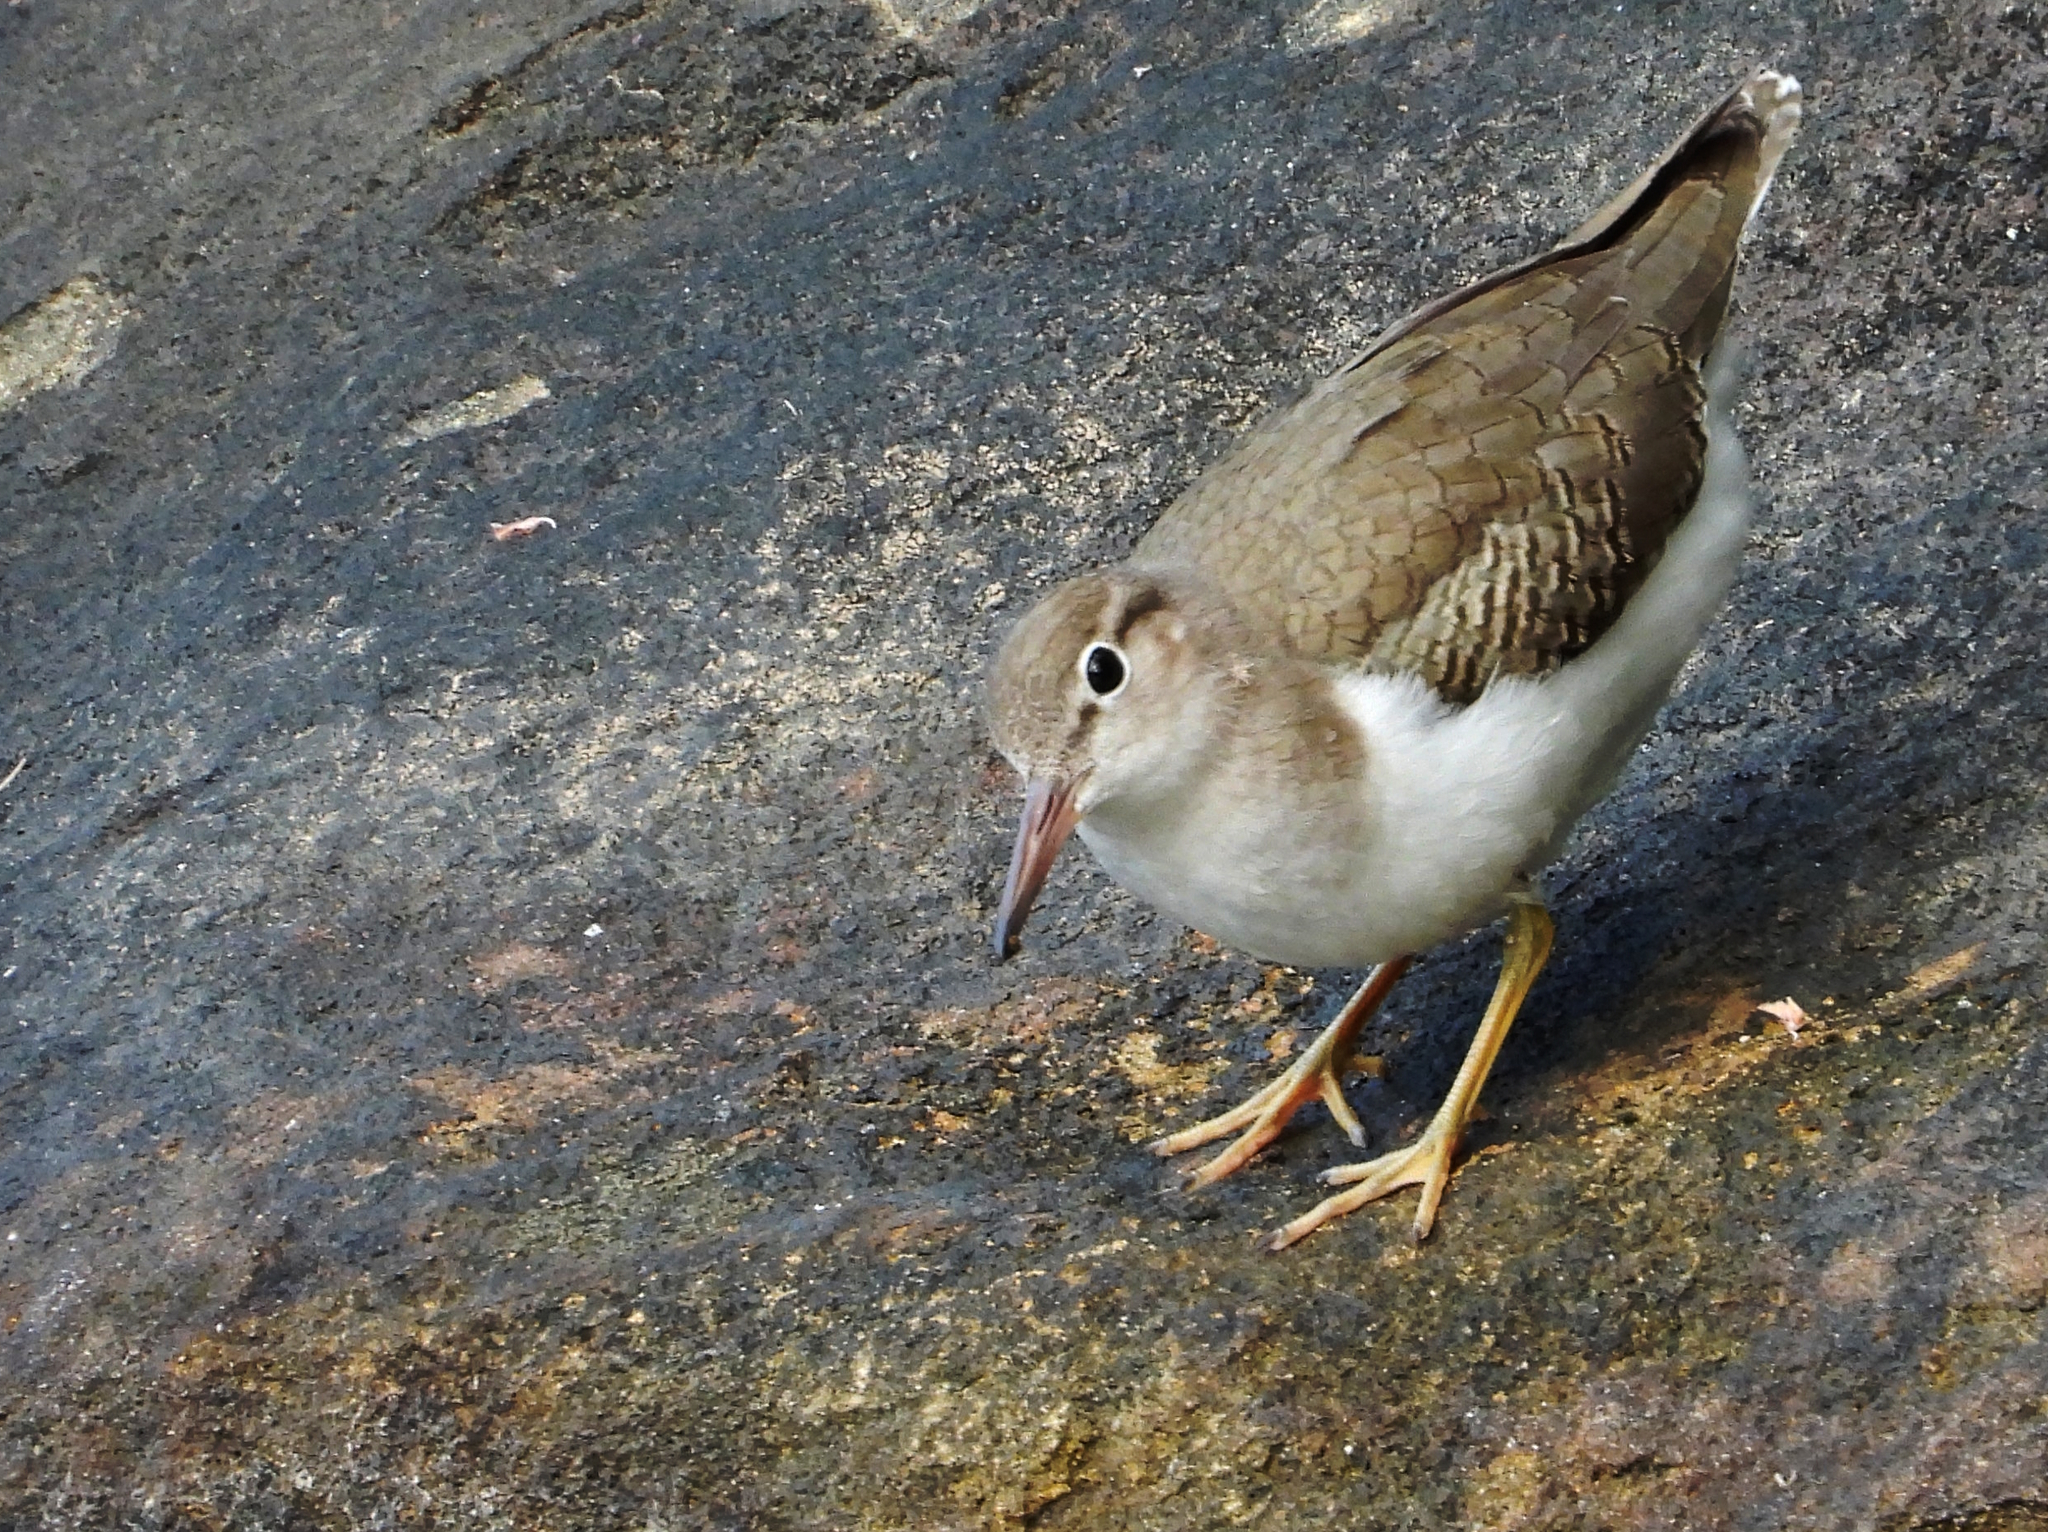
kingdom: Animalia
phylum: Chordata
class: Aves
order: Charadriiformes
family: Scolopacidae
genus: Actitis
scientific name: Actitis macularius
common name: Spotted sandpiper
